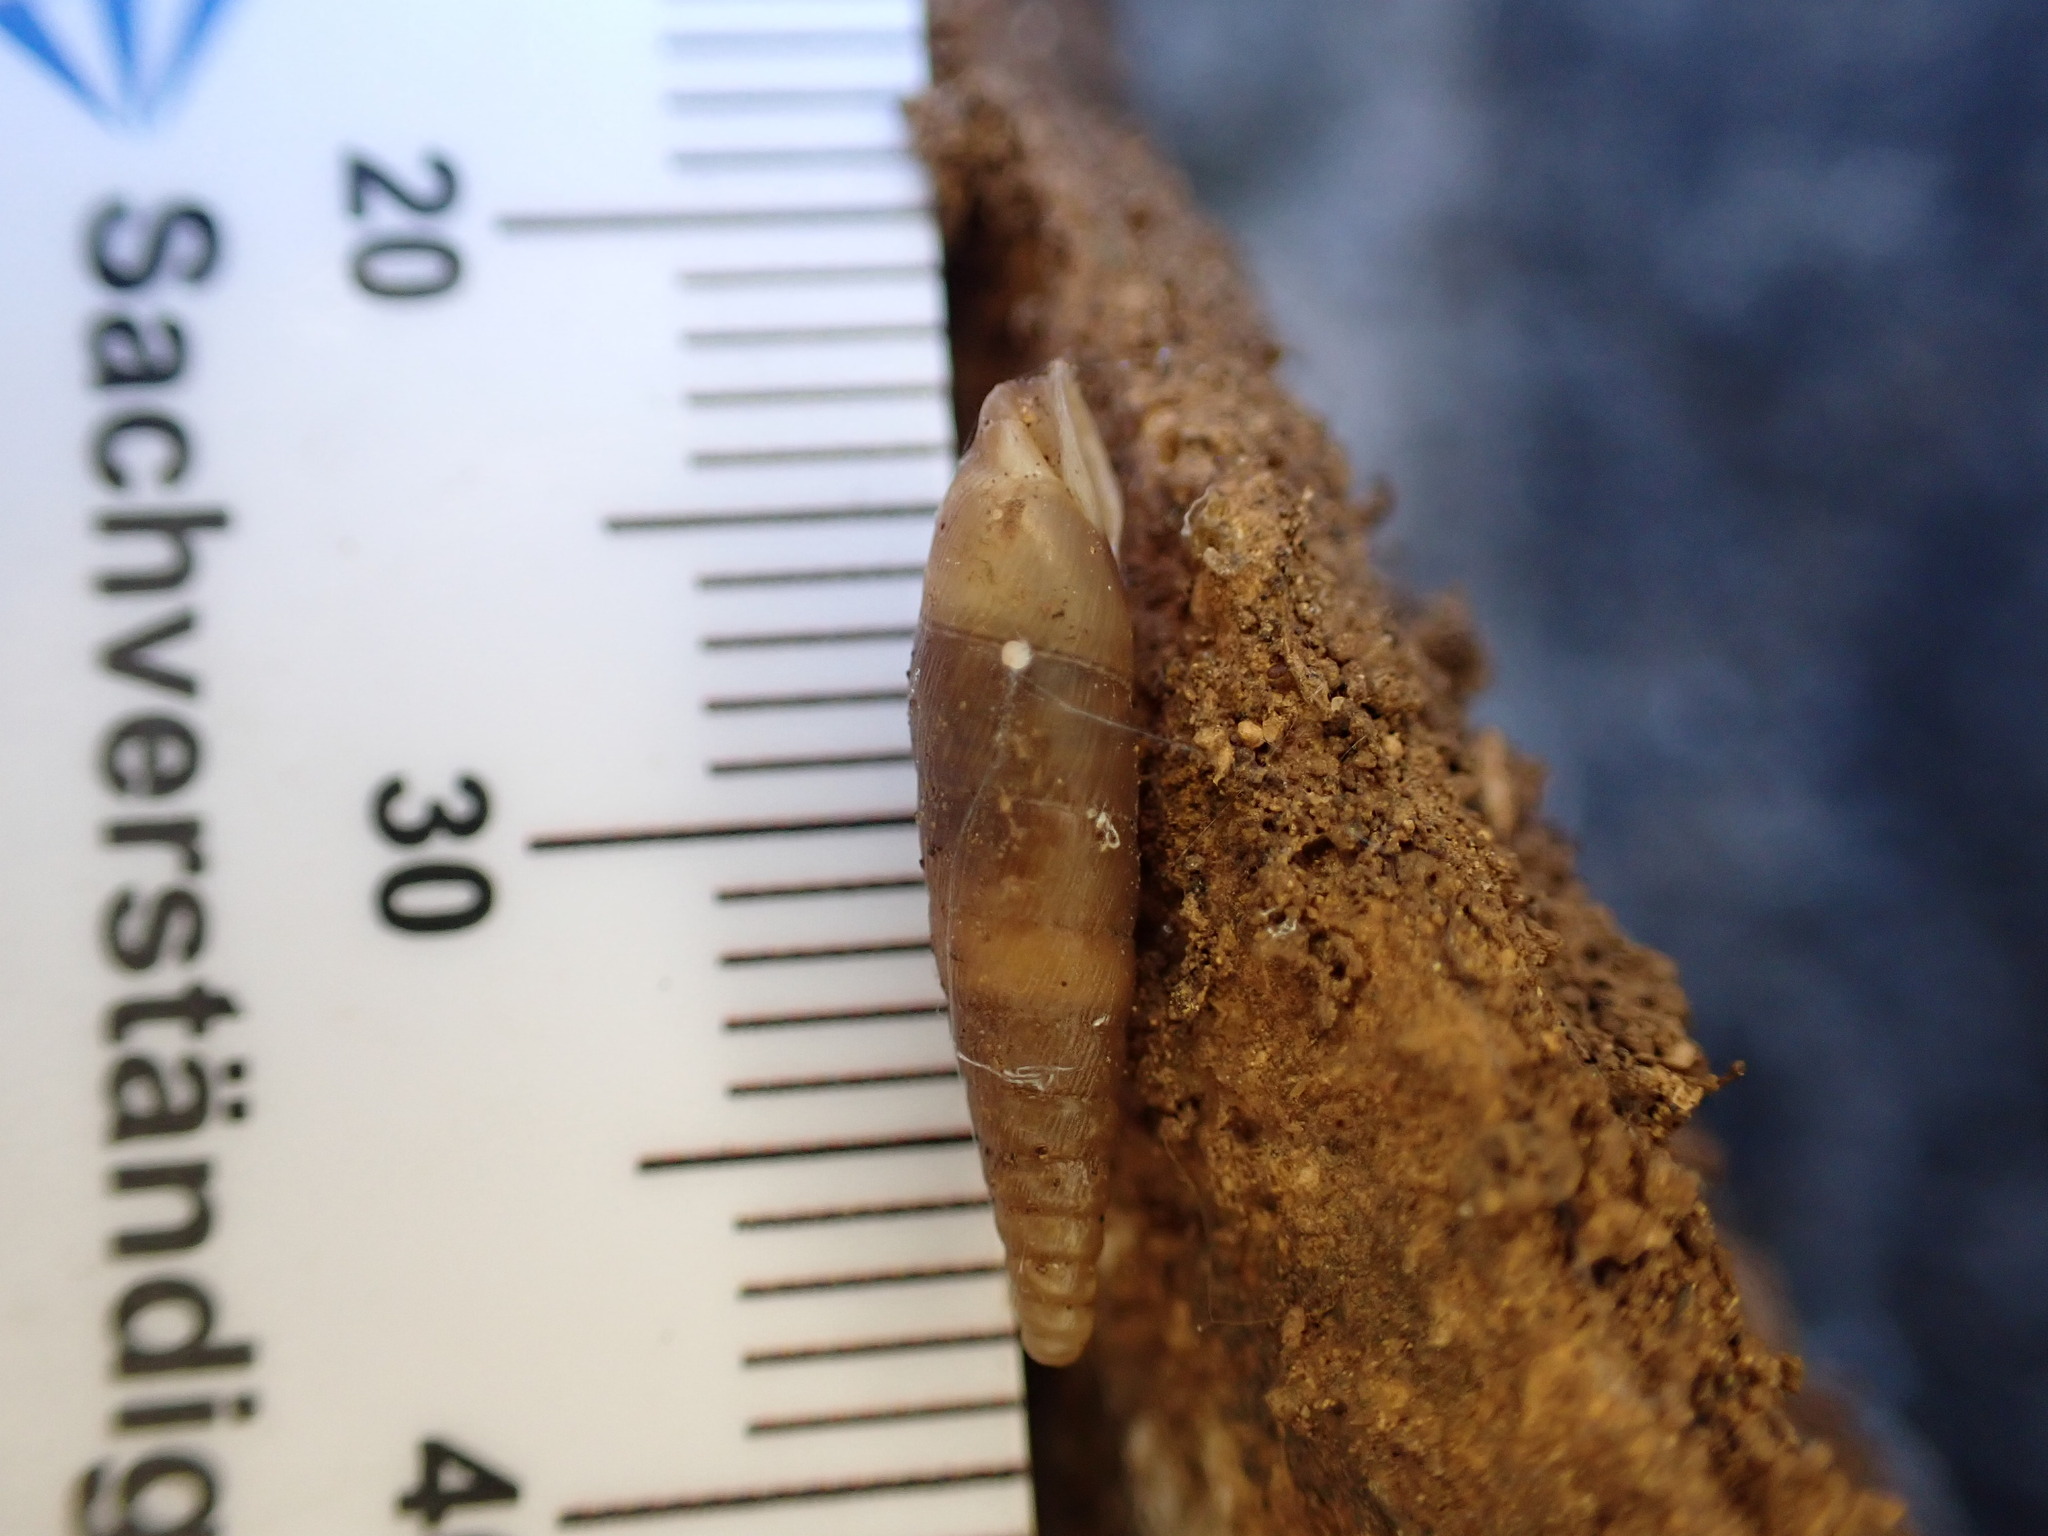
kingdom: Animalia
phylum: Mollusca
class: Gastropoda
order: Stylommatophora
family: Clausiliidae
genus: Papillifera
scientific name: Papillifera solida
